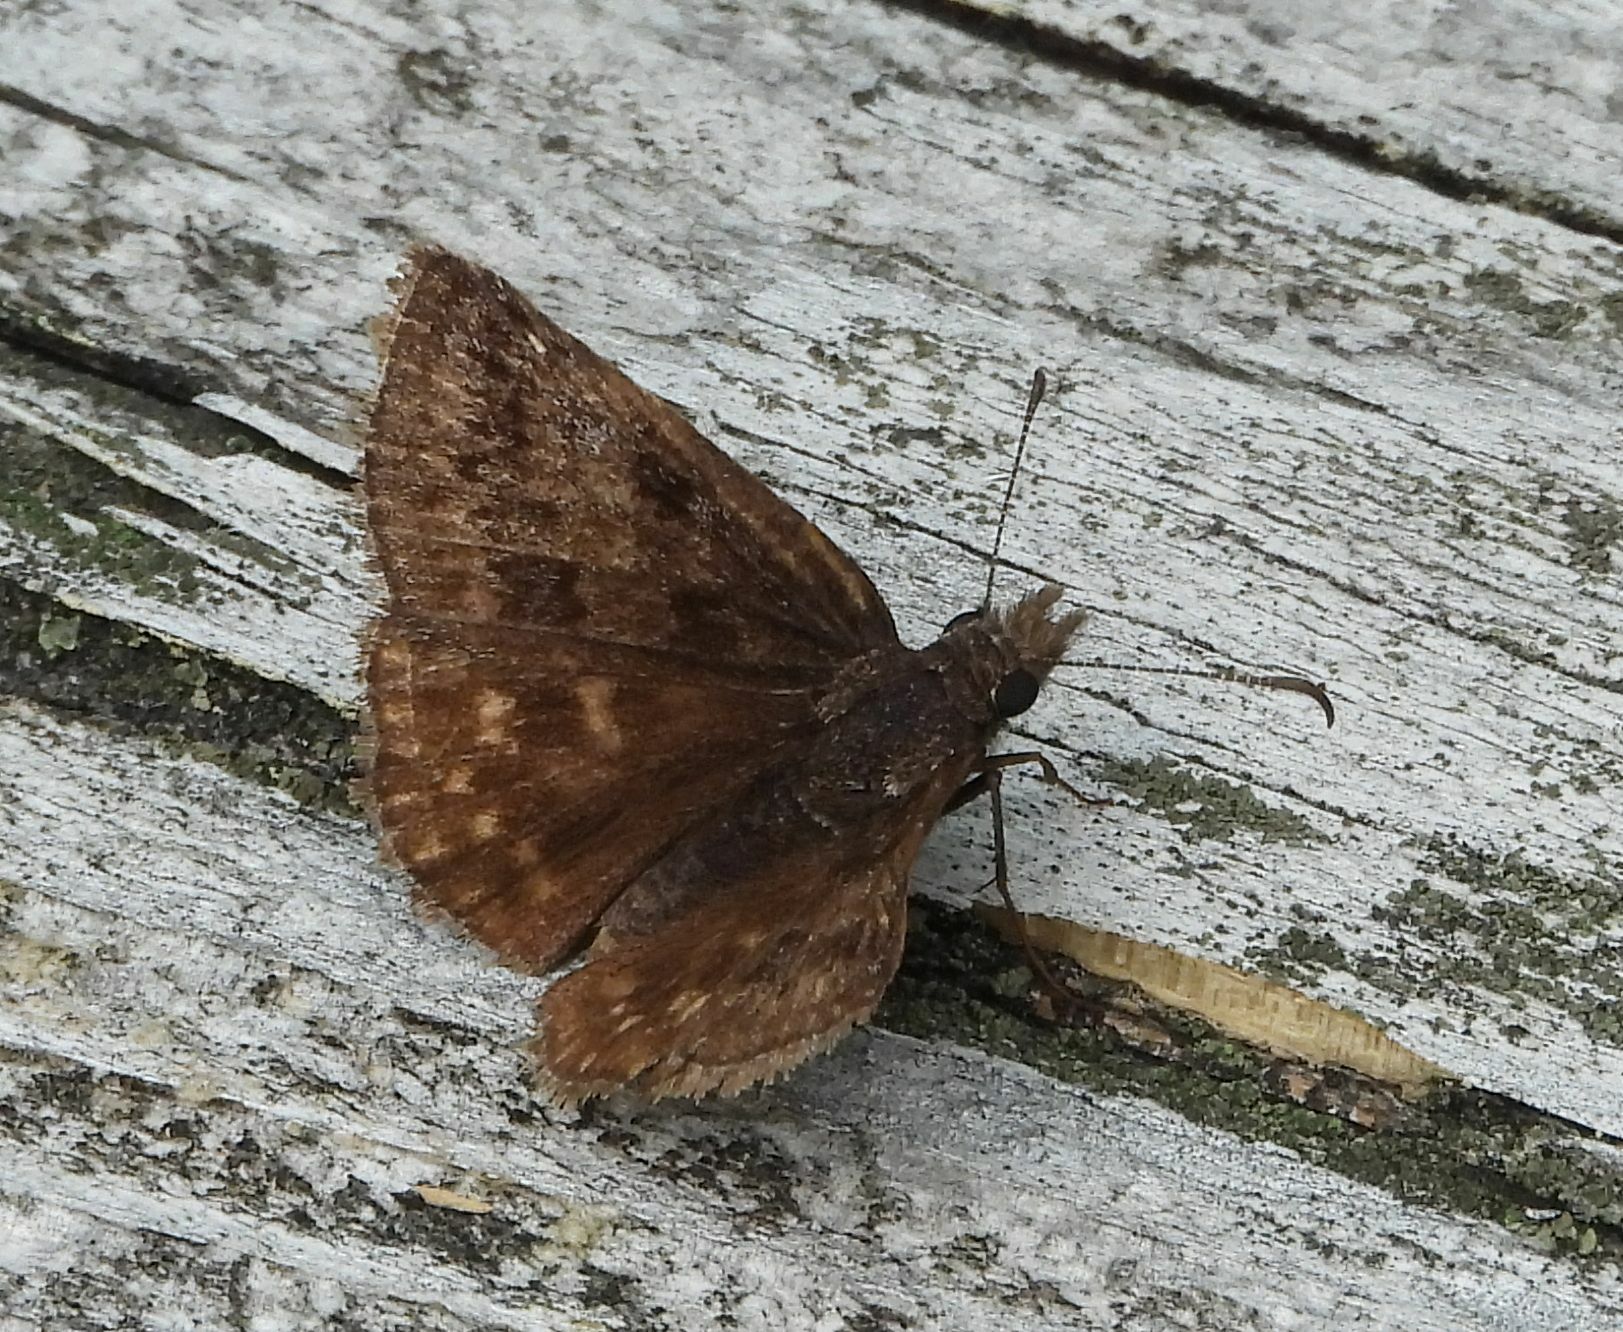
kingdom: Animalia
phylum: Arthropoda
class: Insecta
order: Lepidoptera
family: Hesperiidae
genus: Erynnis
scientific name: Erynnis icelus
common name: Dreamy duskywing
